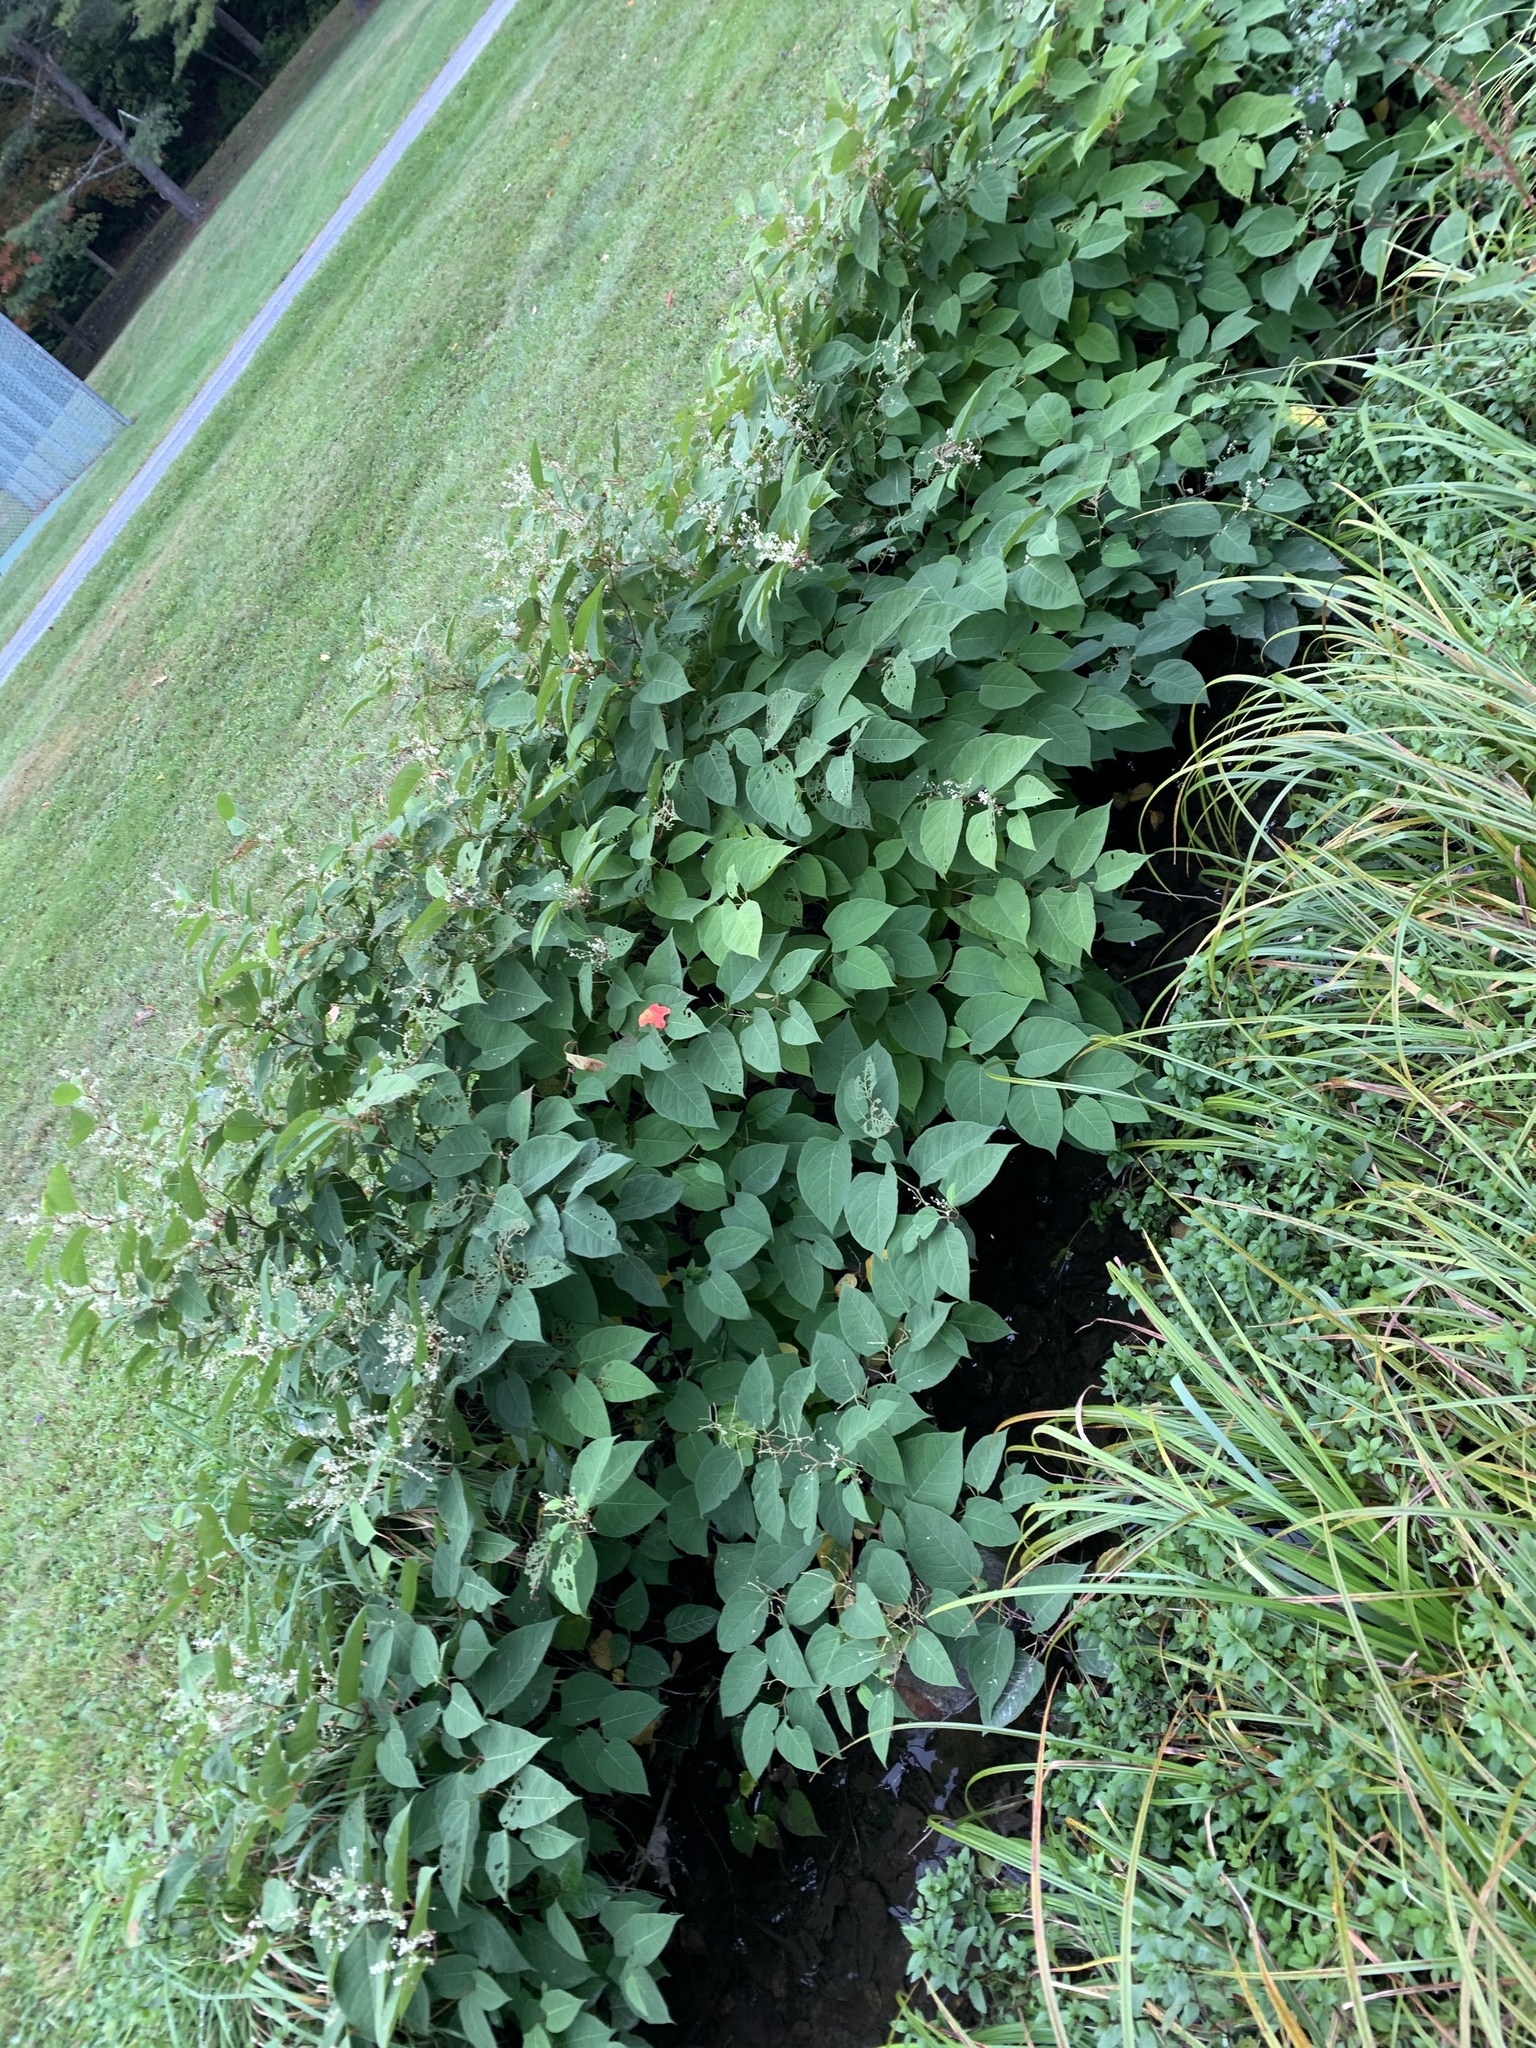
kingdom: Plantae
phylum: Tracheophyta
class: Magnoliopsida
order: Caryophyllales
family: Polygonaceae
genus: Reynoutria
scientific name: Reynoutria japonica
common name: Japanese knotweed
